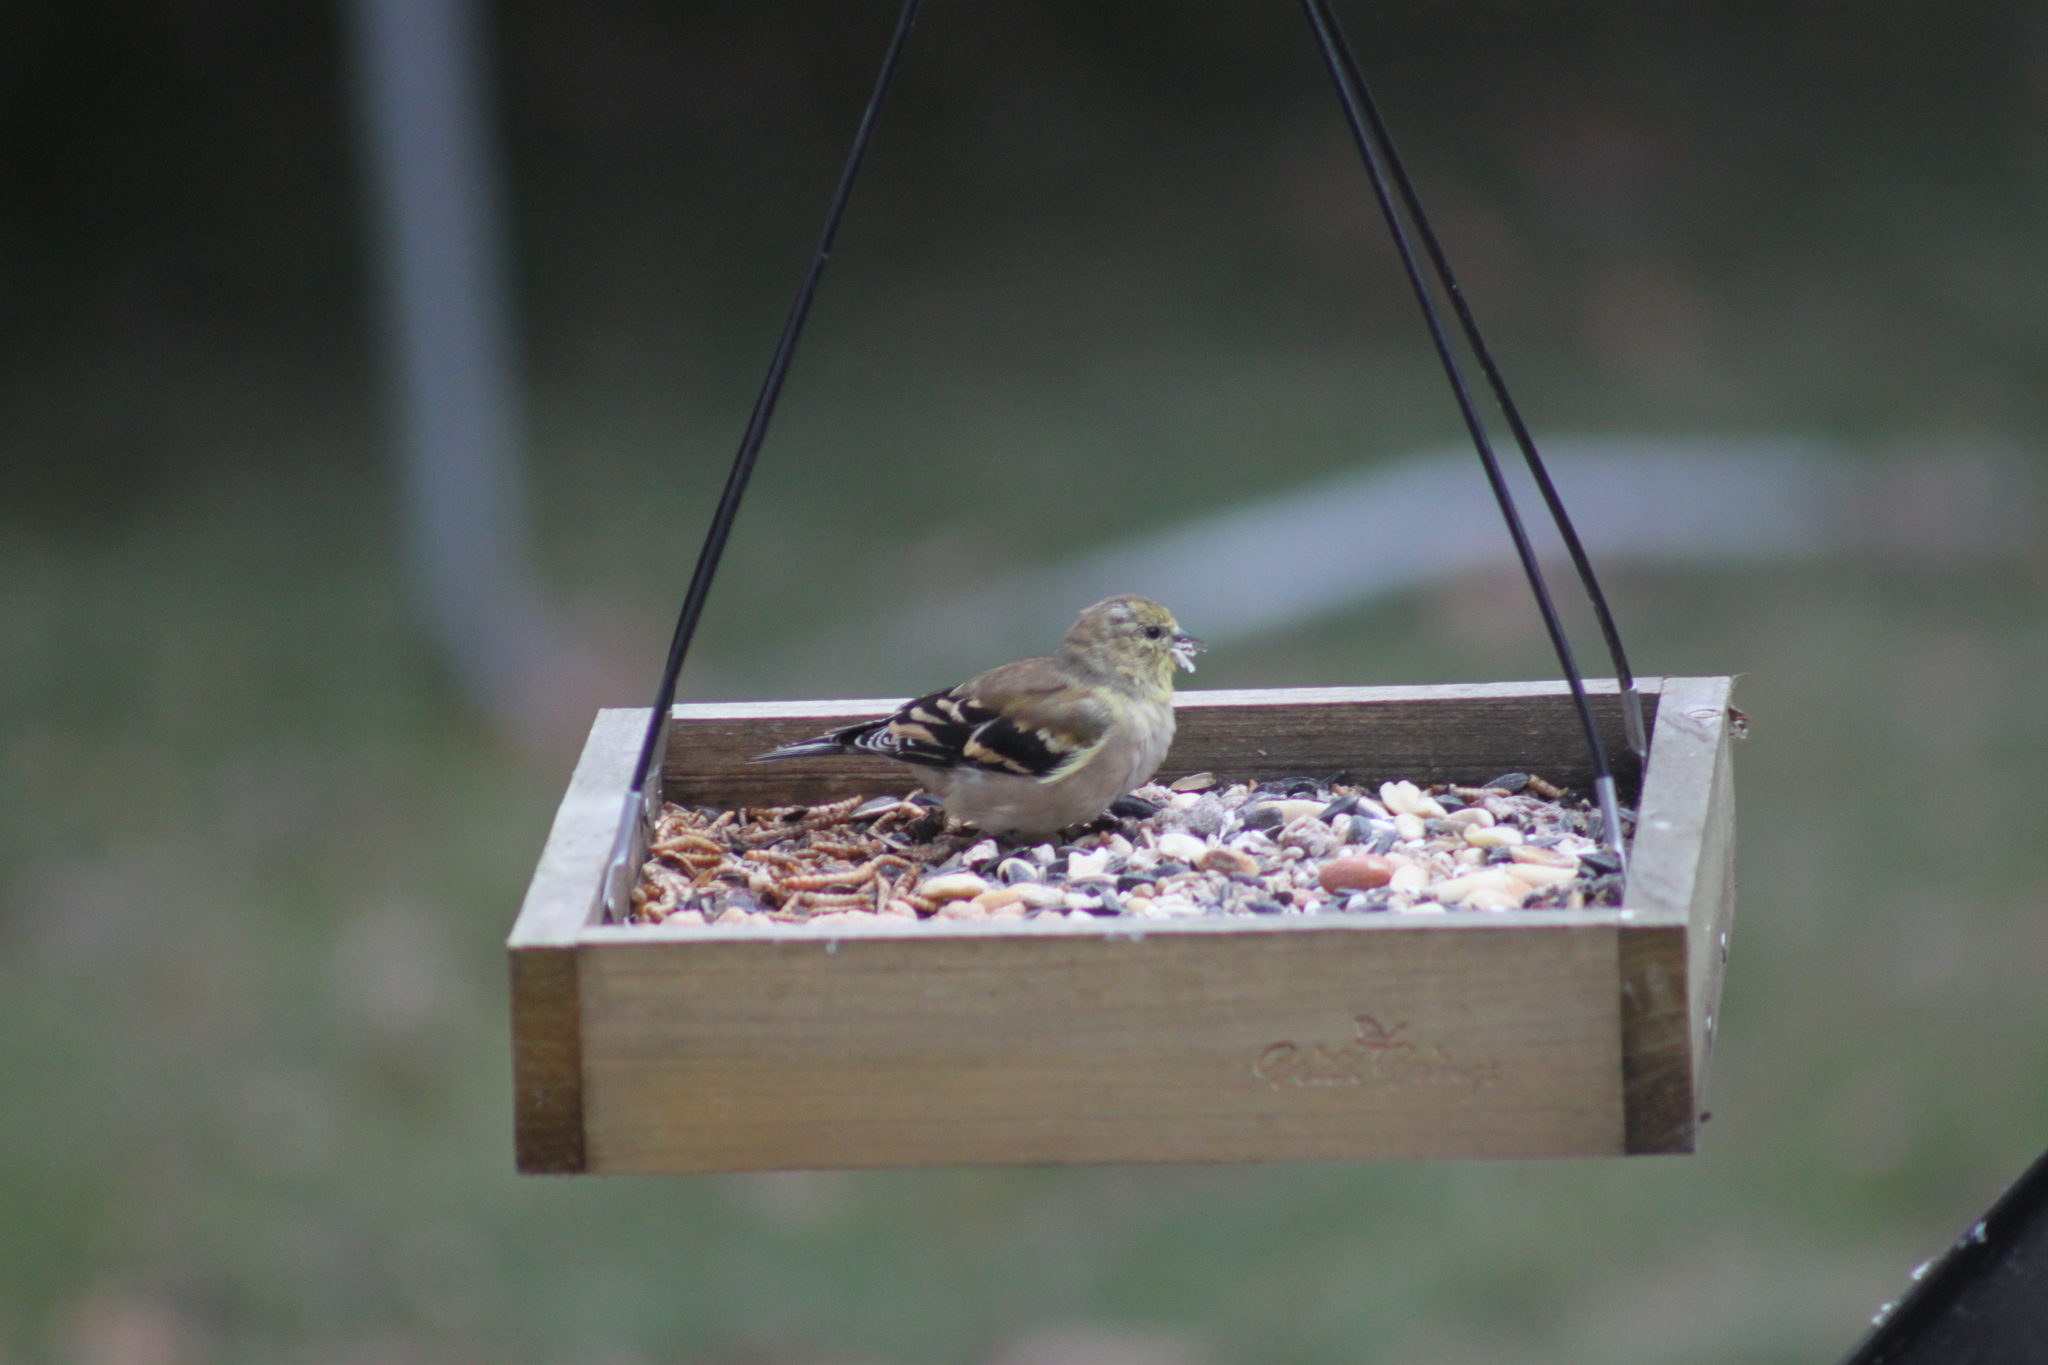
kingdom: Animalia
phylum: Chordata
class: Aves
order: Passeriformes
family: Fringillidae
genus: Spinus
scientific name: Spinus tristis
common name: American goldfinch
